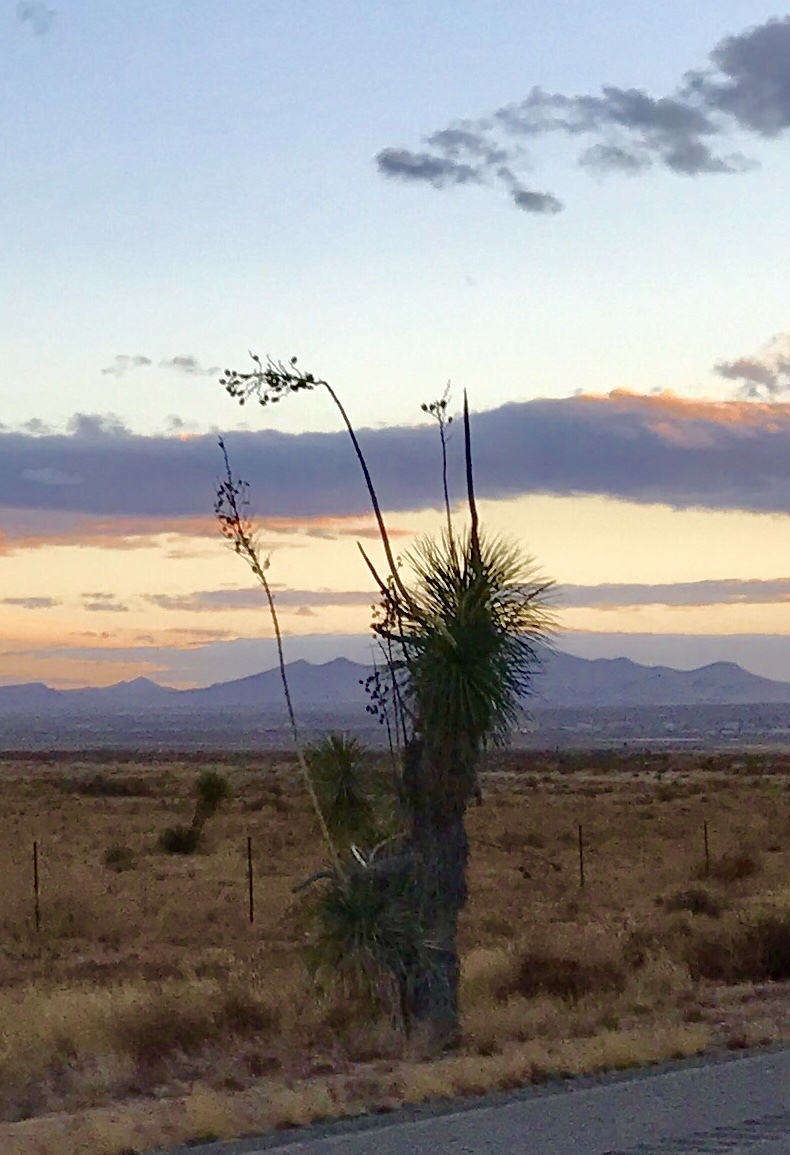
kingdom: Plantae
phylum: Tracheophyta
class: Liliopsida
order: Asparagales
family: Asparagaceae
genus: Yucca
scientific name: Yucca elata
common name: Palmella
